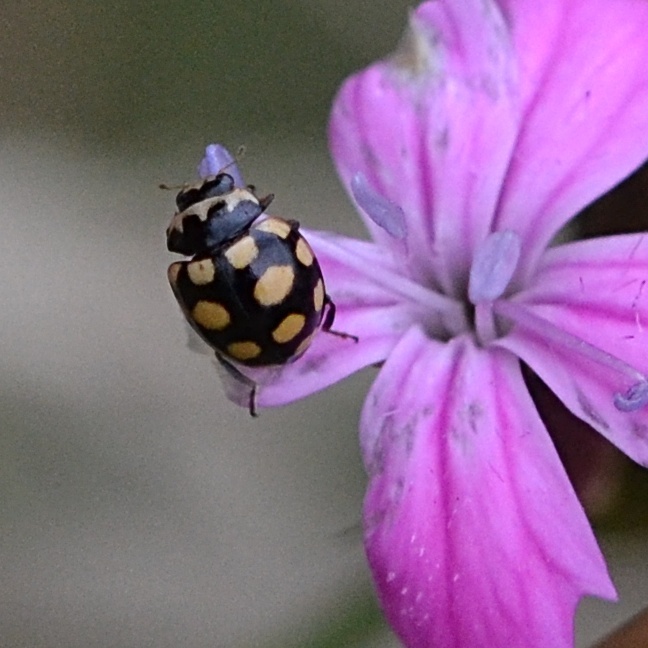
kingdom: Animalia
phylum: Arthropoda
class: Insecta
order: Coleoptera
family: Coccinellidae
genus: Coccinula
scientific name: Coccinula quatuordecimpustulata
